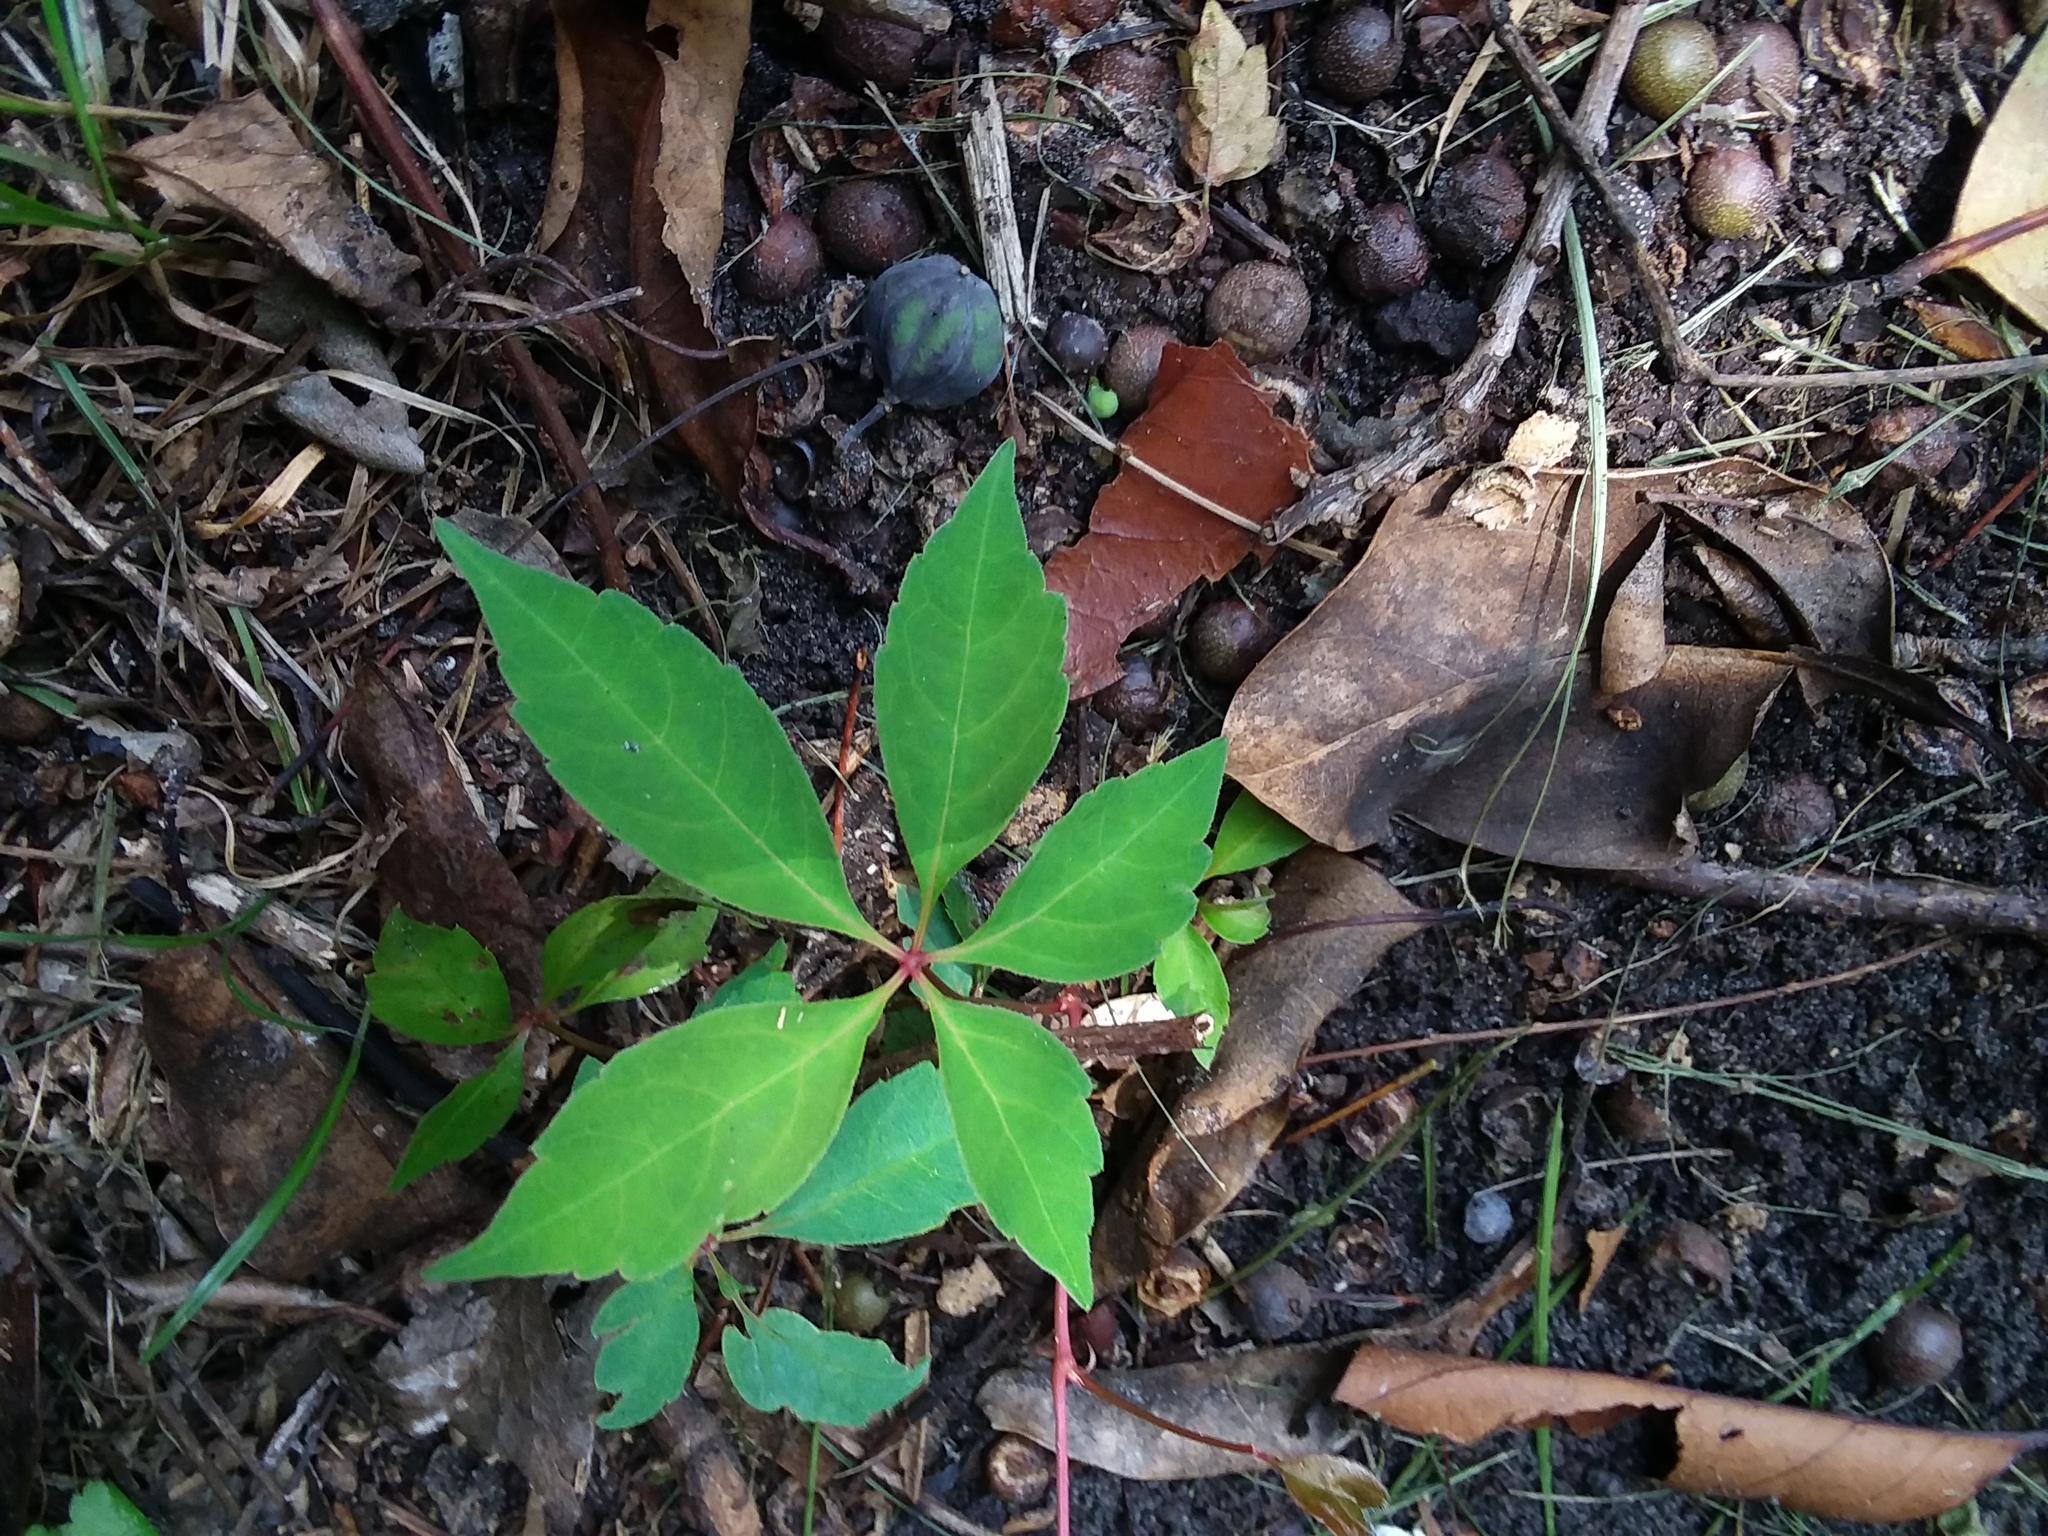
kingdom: Plantae
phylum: Tracheophyta
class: Magnoliopsida
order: Vitales
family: Vitaceae
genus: Parthenocissus
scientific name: Parthenocissus quinquefolia
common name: Virginia-creeper
